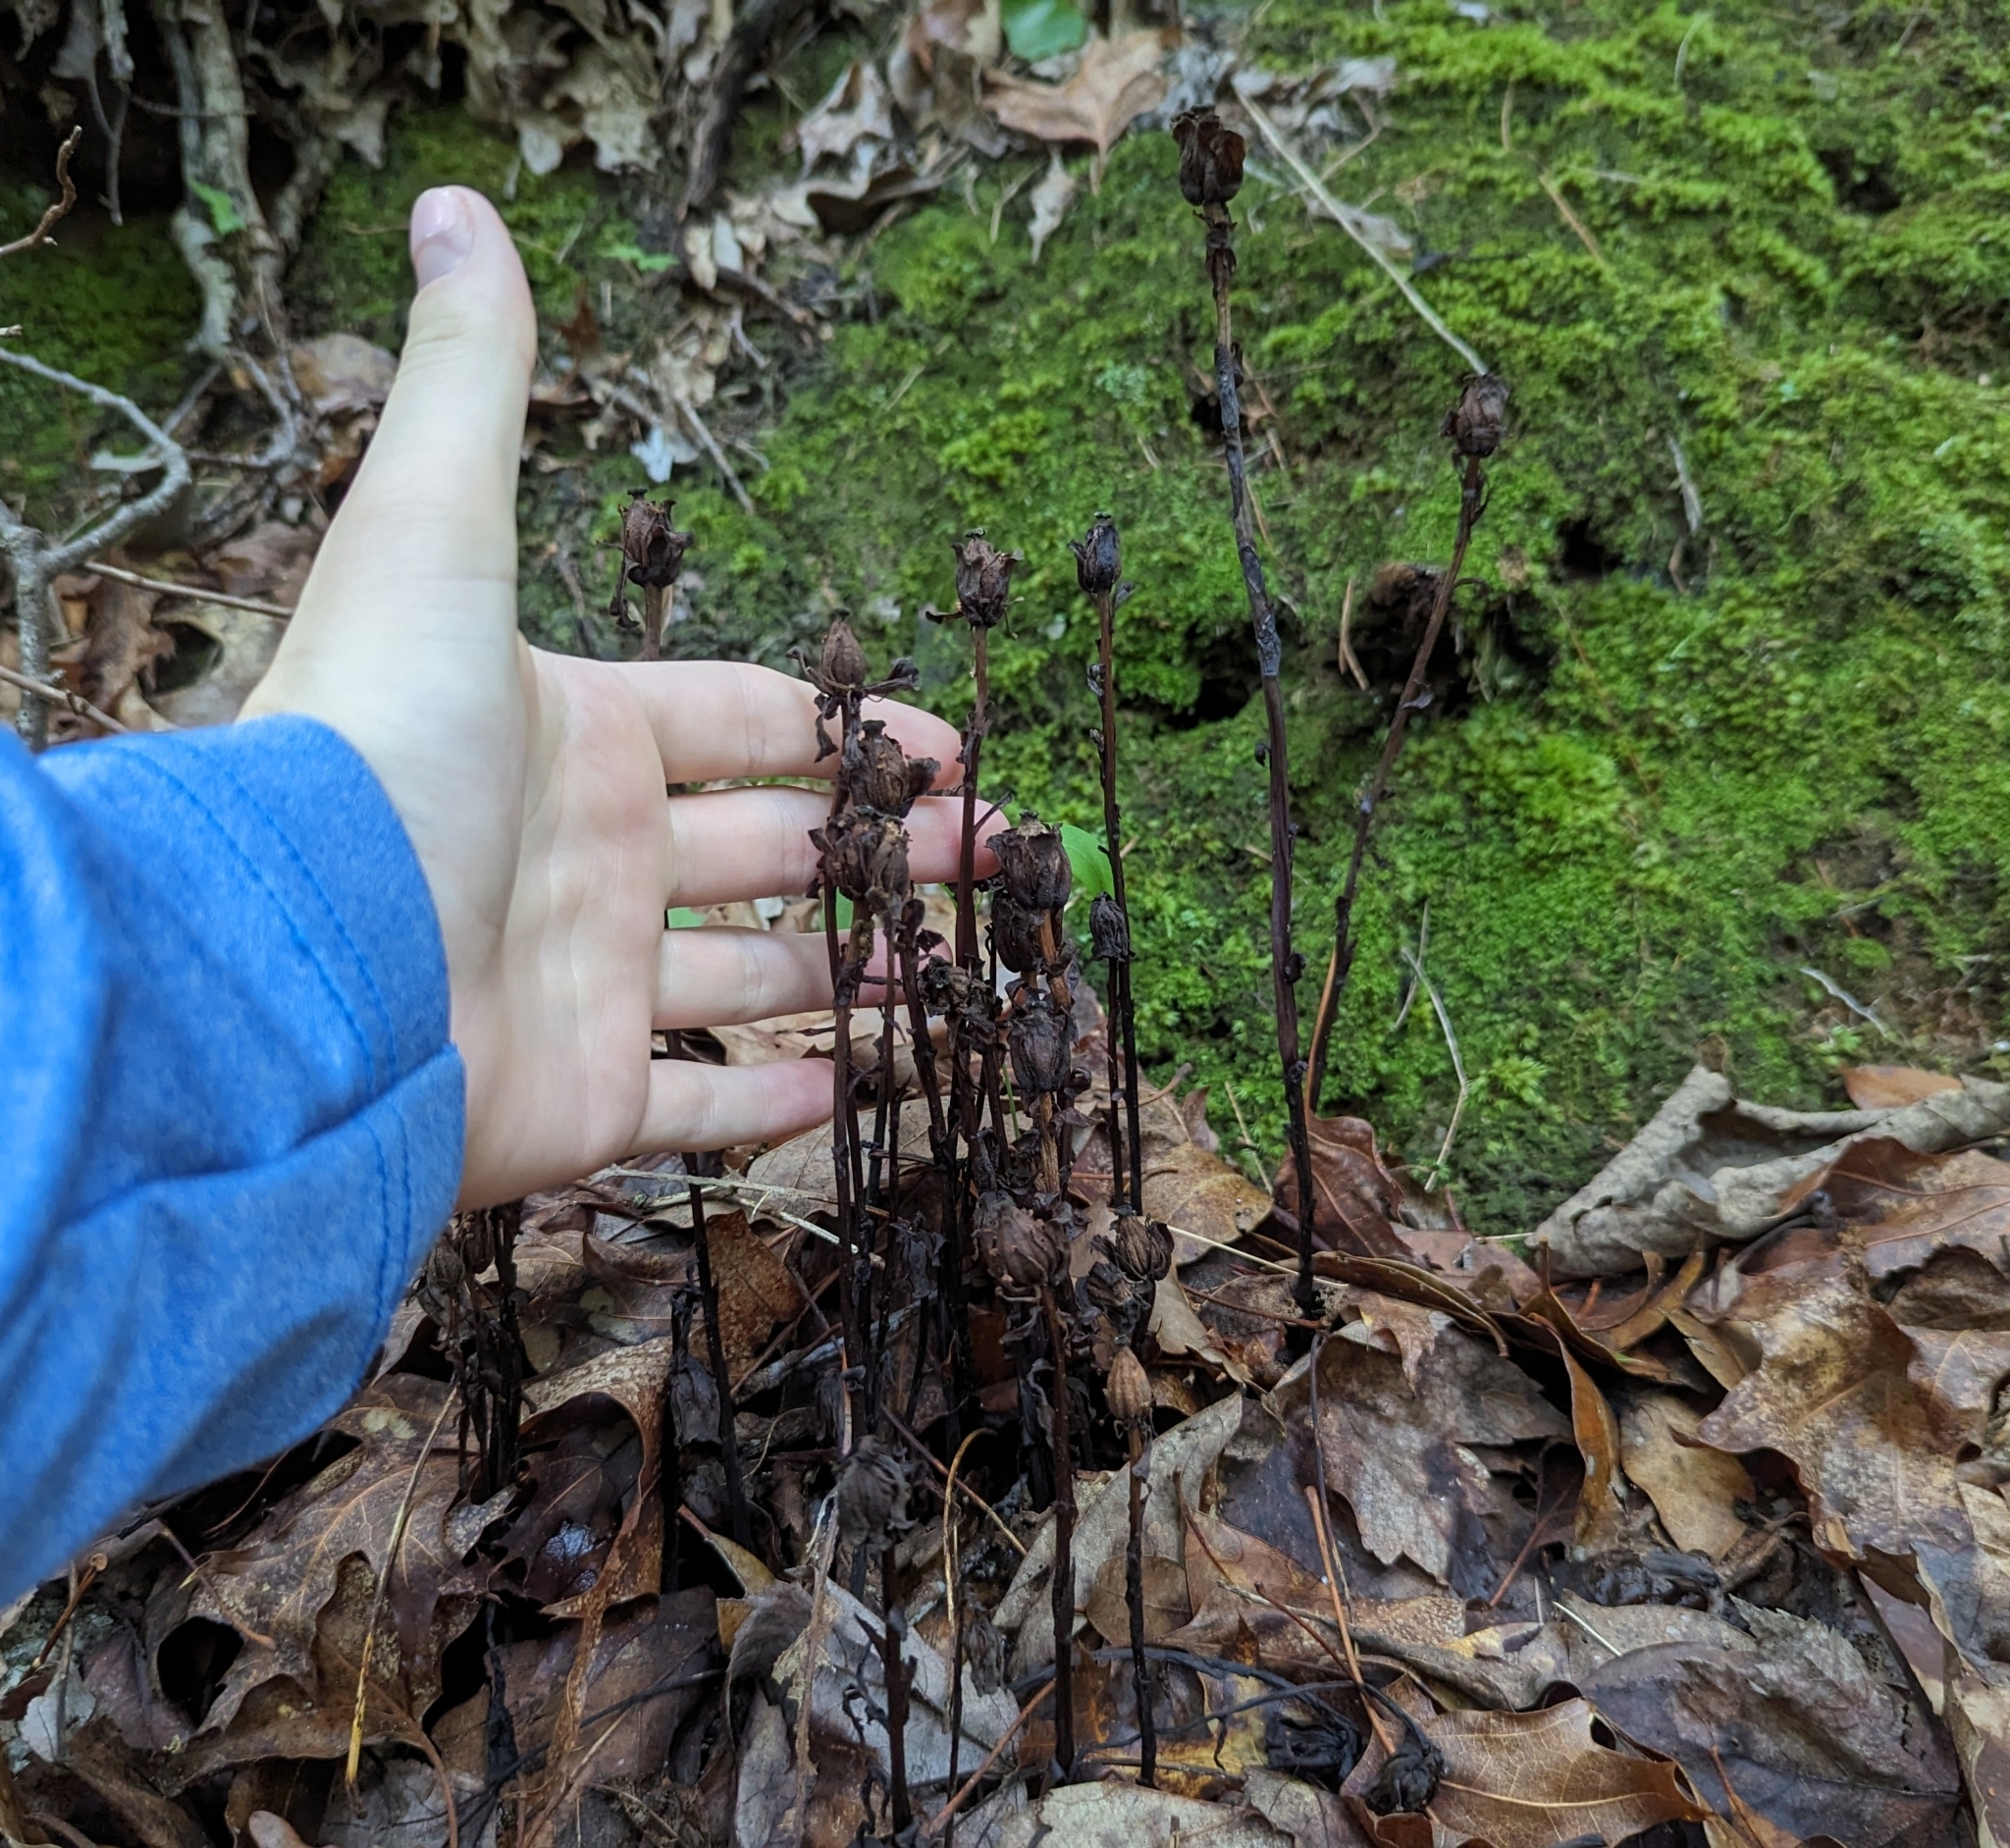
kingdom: Plantae
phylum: Tracheophyta
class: Magnoliopsida
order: Ericales
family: Ericaceae
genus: Monotropa
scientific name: Monotropa uniflora
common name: Convulsion root
